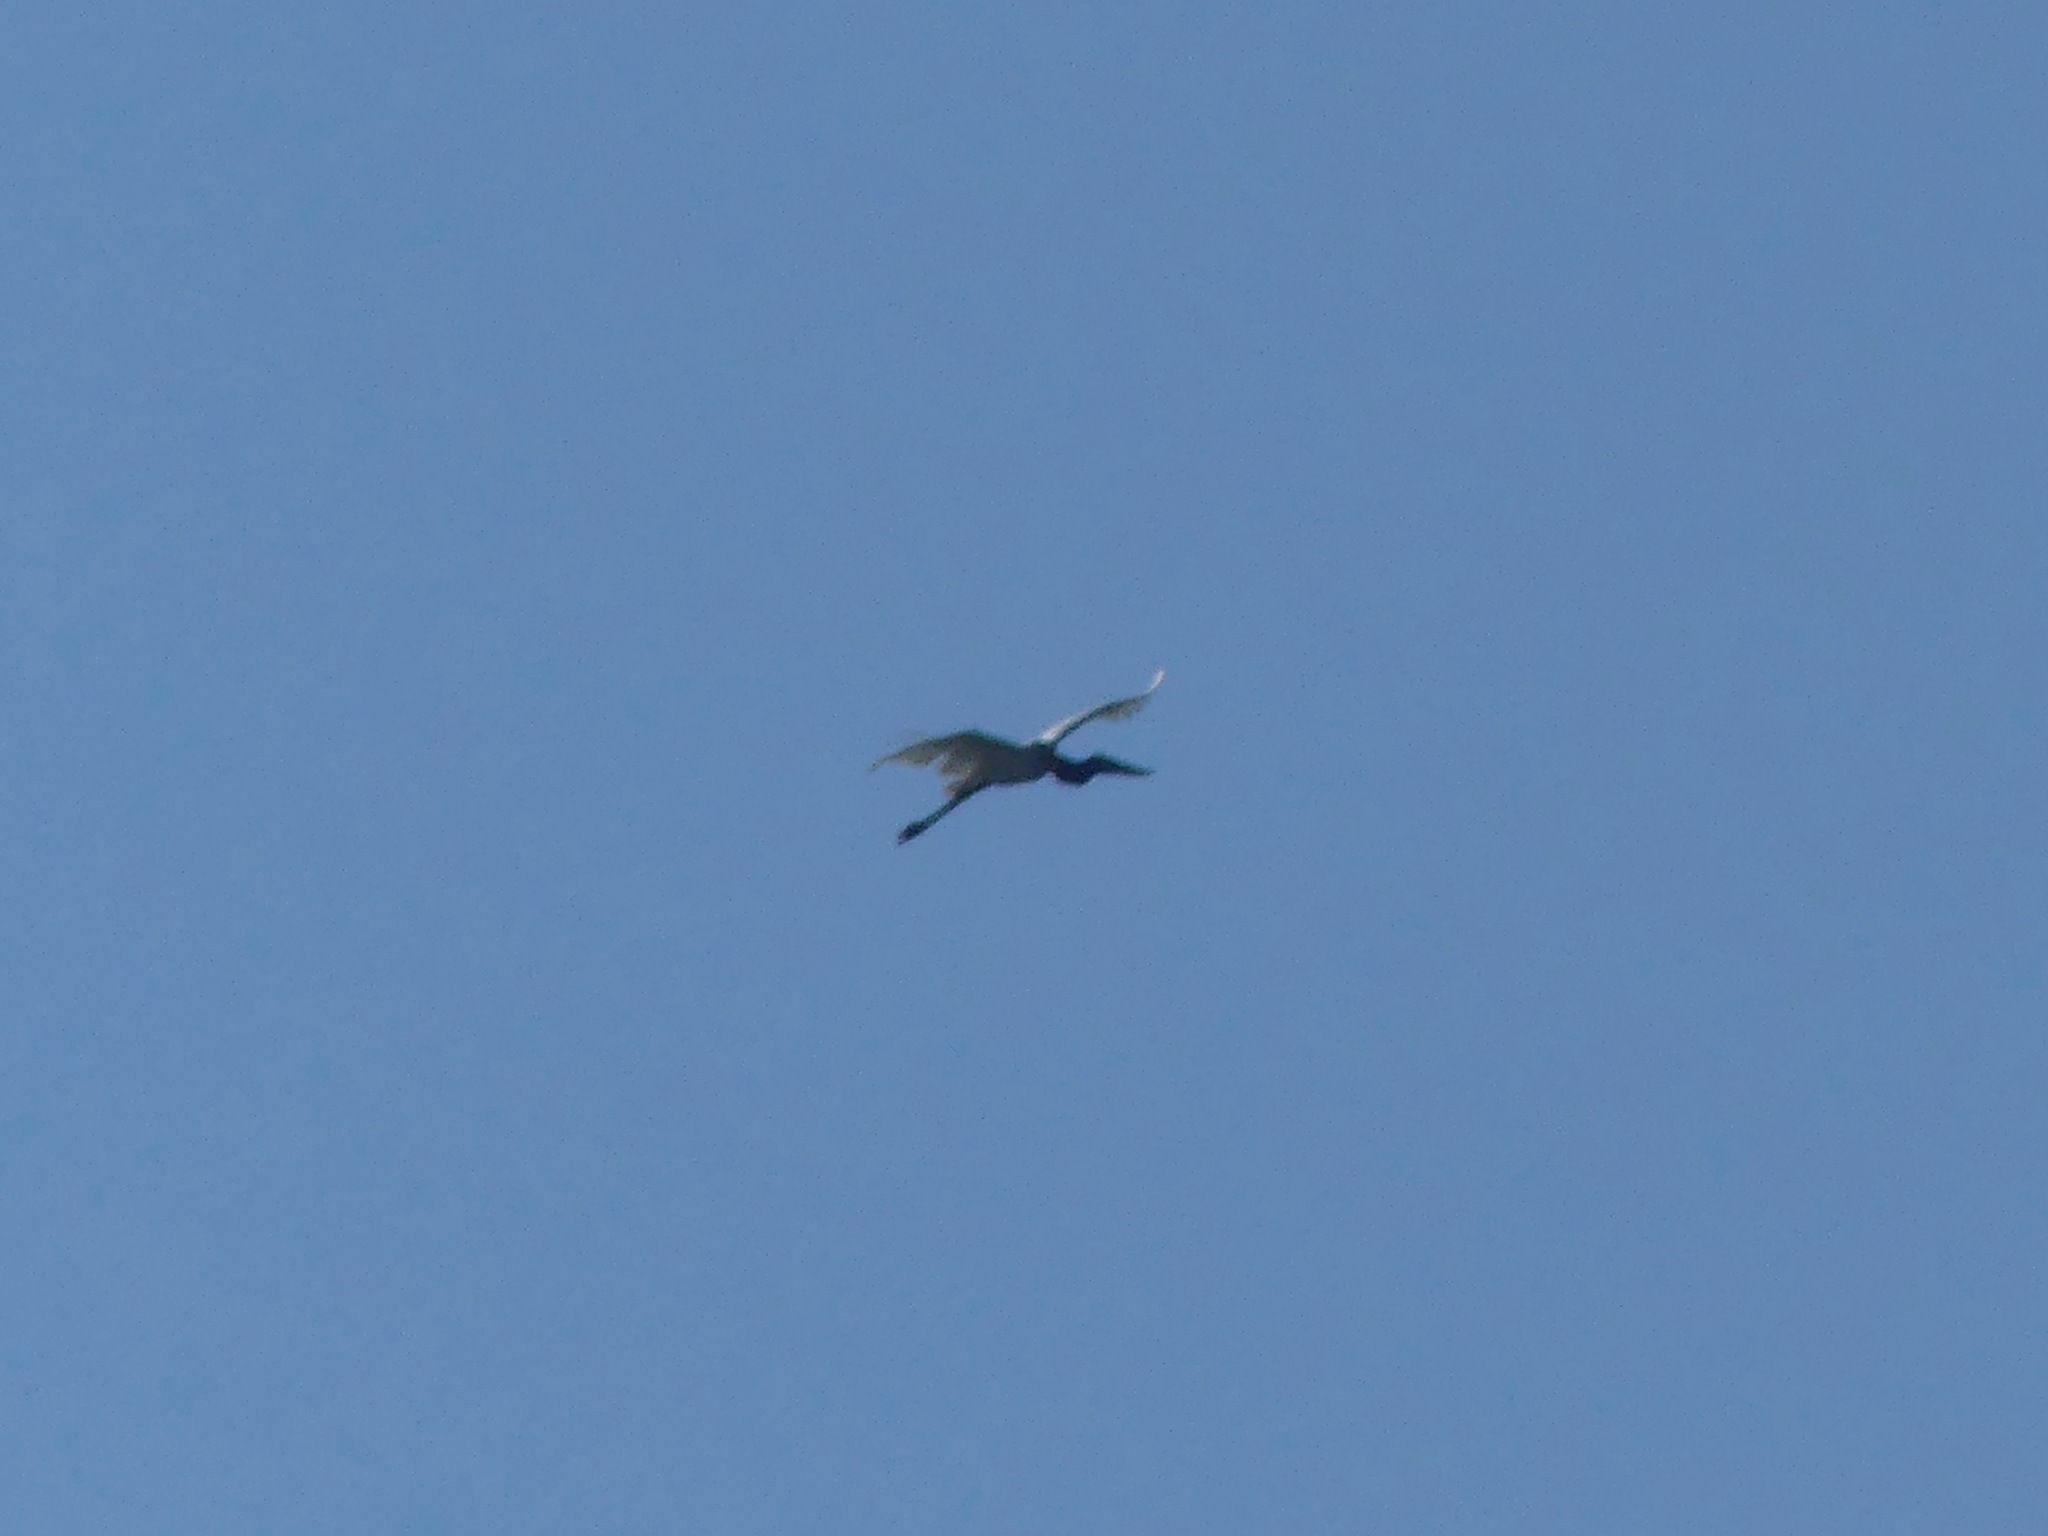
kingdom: Animalia
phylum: Chordata
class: Aves
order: Ciconiiformes
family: Ciconiidae
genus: Jabiru
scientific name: Jabiru mycteria
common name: Jabiru
